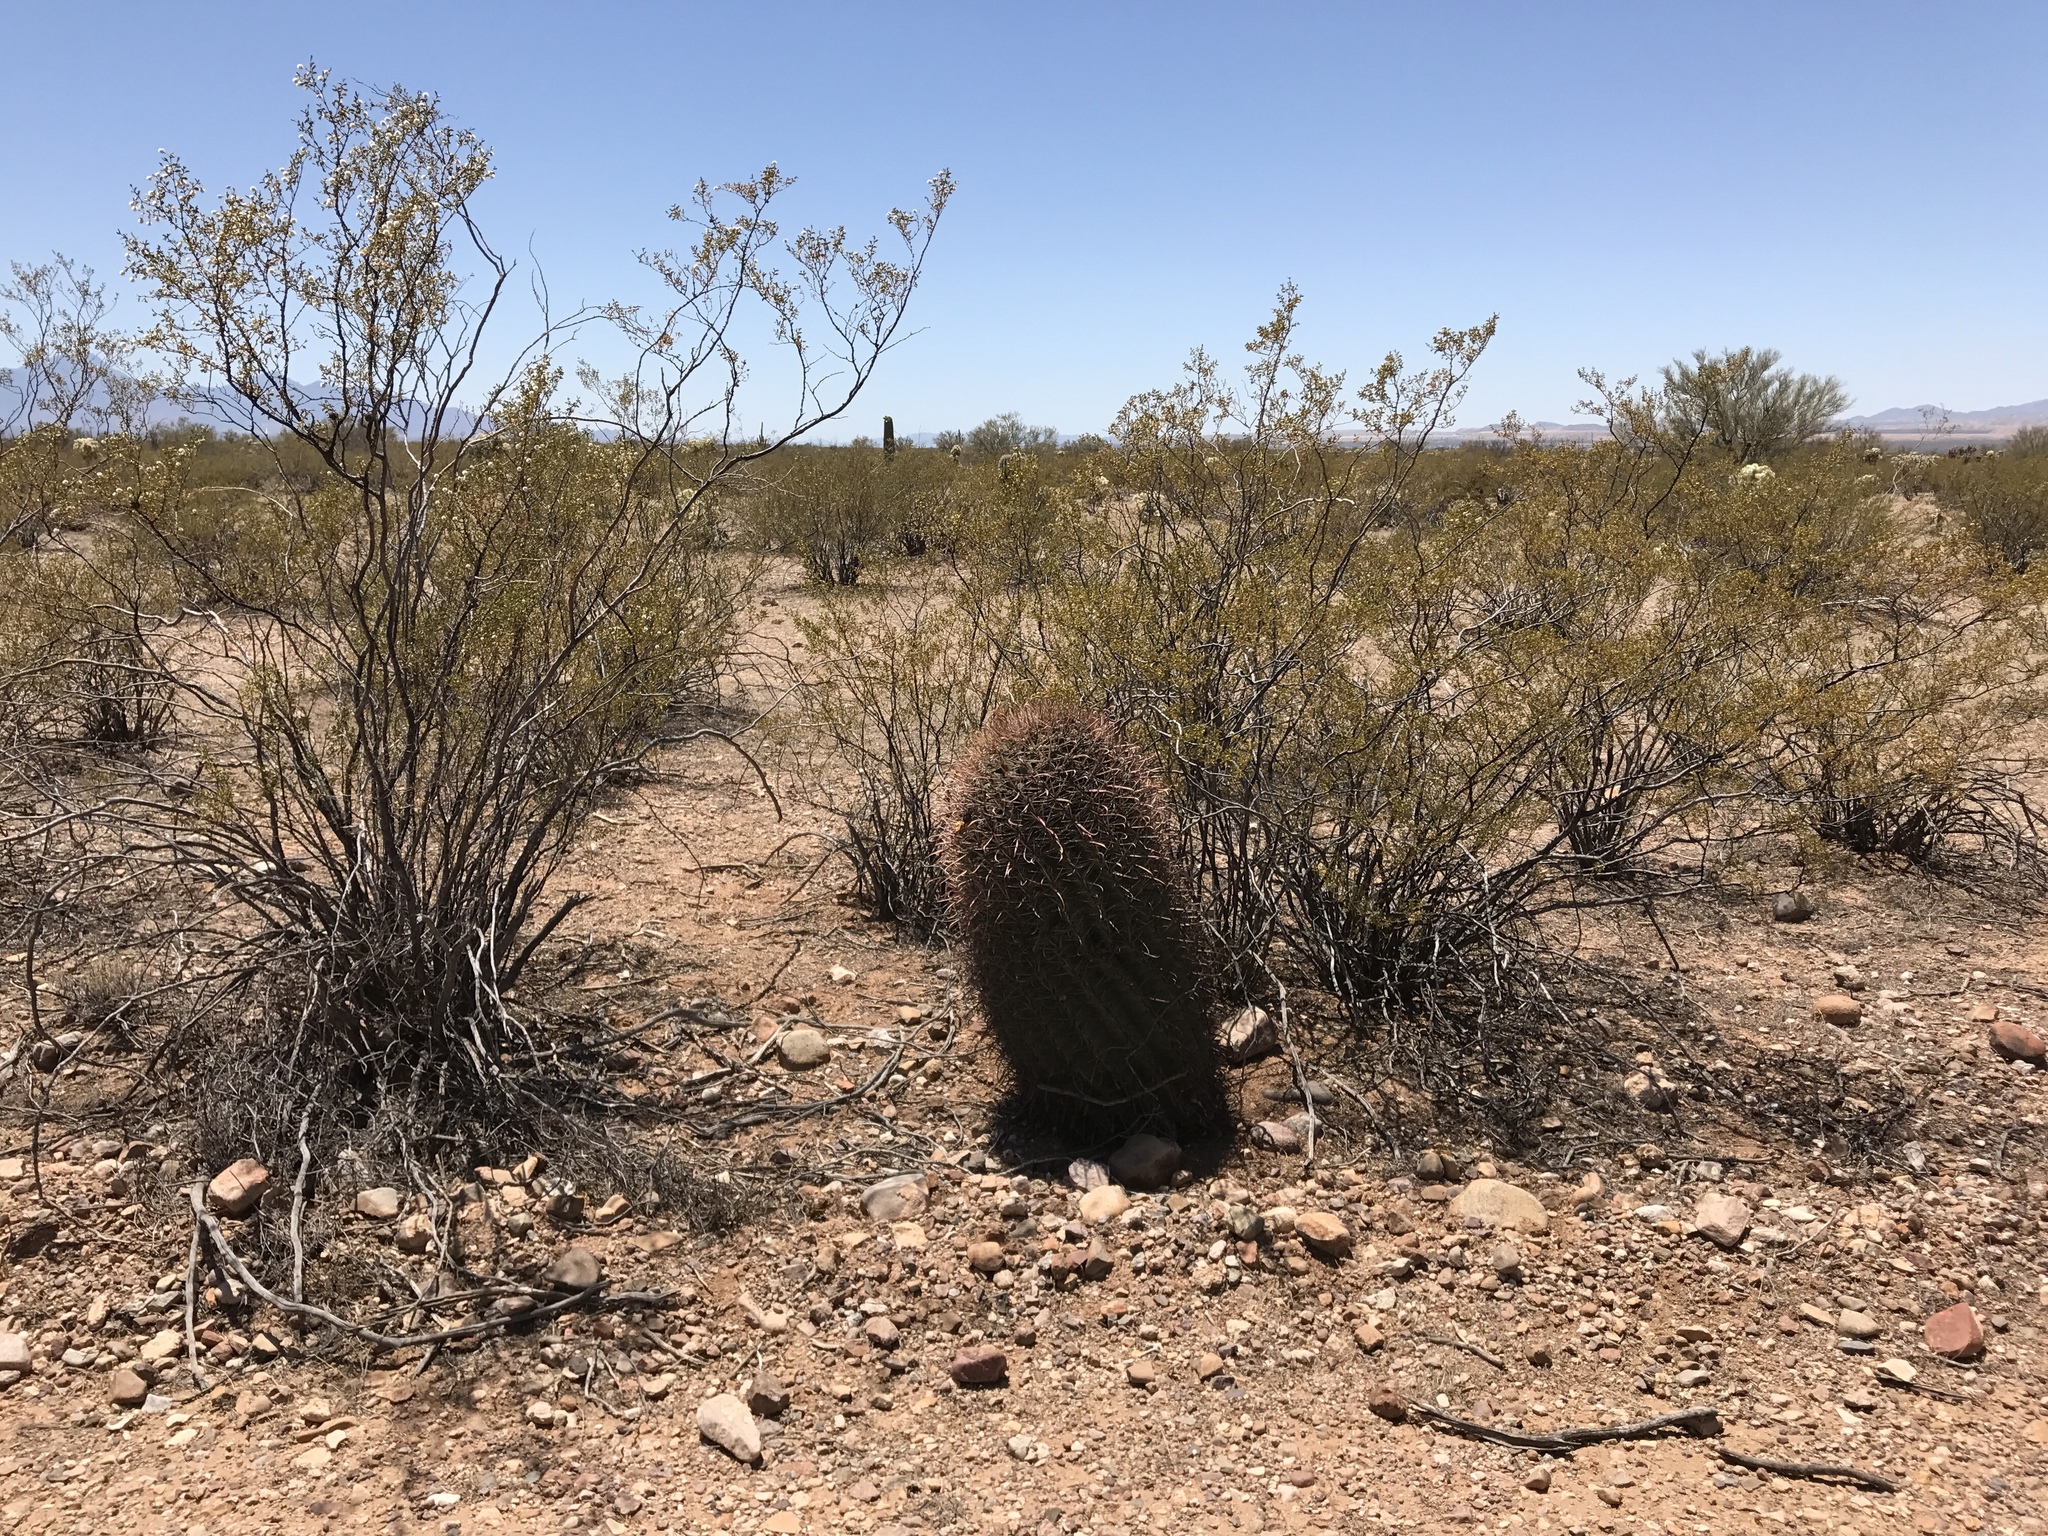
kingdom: Plantae
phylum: Tracheophyta
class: Magnoliopsida
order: Zygophyllales
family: Zygophyllaceae
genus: Larrea
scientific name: Larrea tridentata
